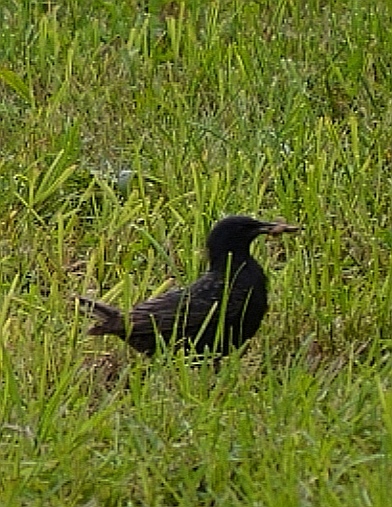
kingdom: Animalia
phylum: Chordata
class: Aves
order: Passeriformes
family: Sturnidae
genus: Sturnus
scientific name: Sturnus vulgaris
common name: Common starling
